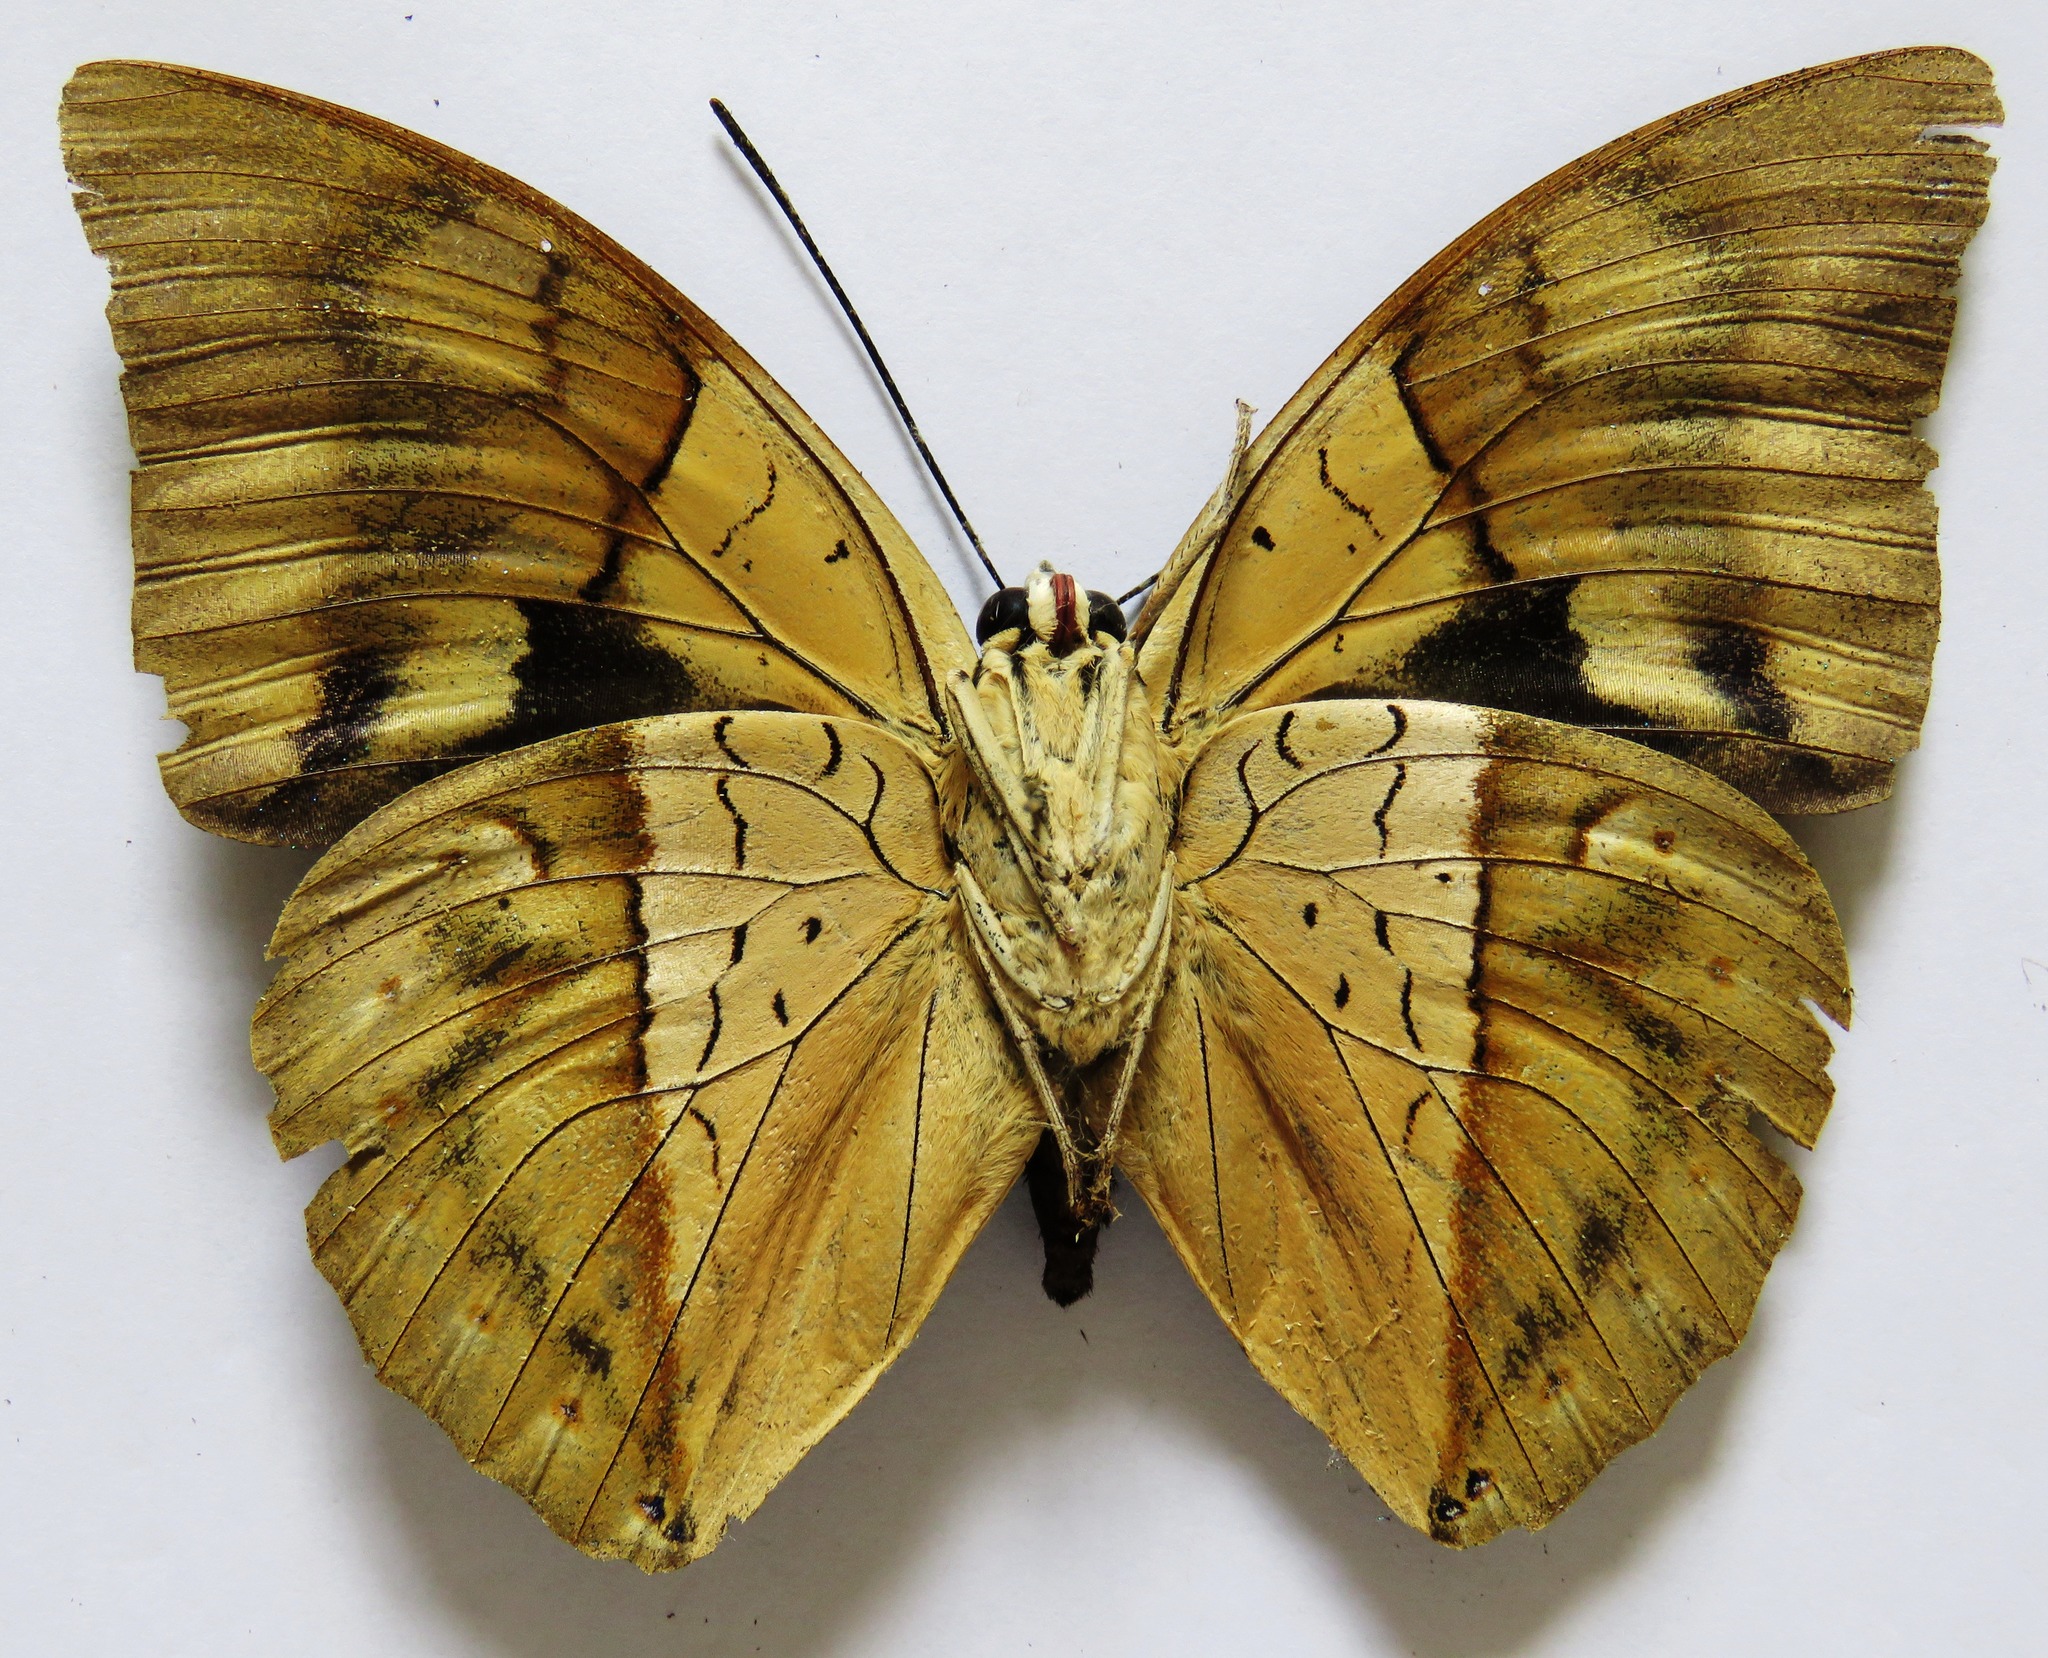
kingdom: Animalia
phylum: Arthropoda
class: Insecta
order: Lepidoptera
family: Nymphalidae
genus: Prepona
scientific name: Prepona meander
